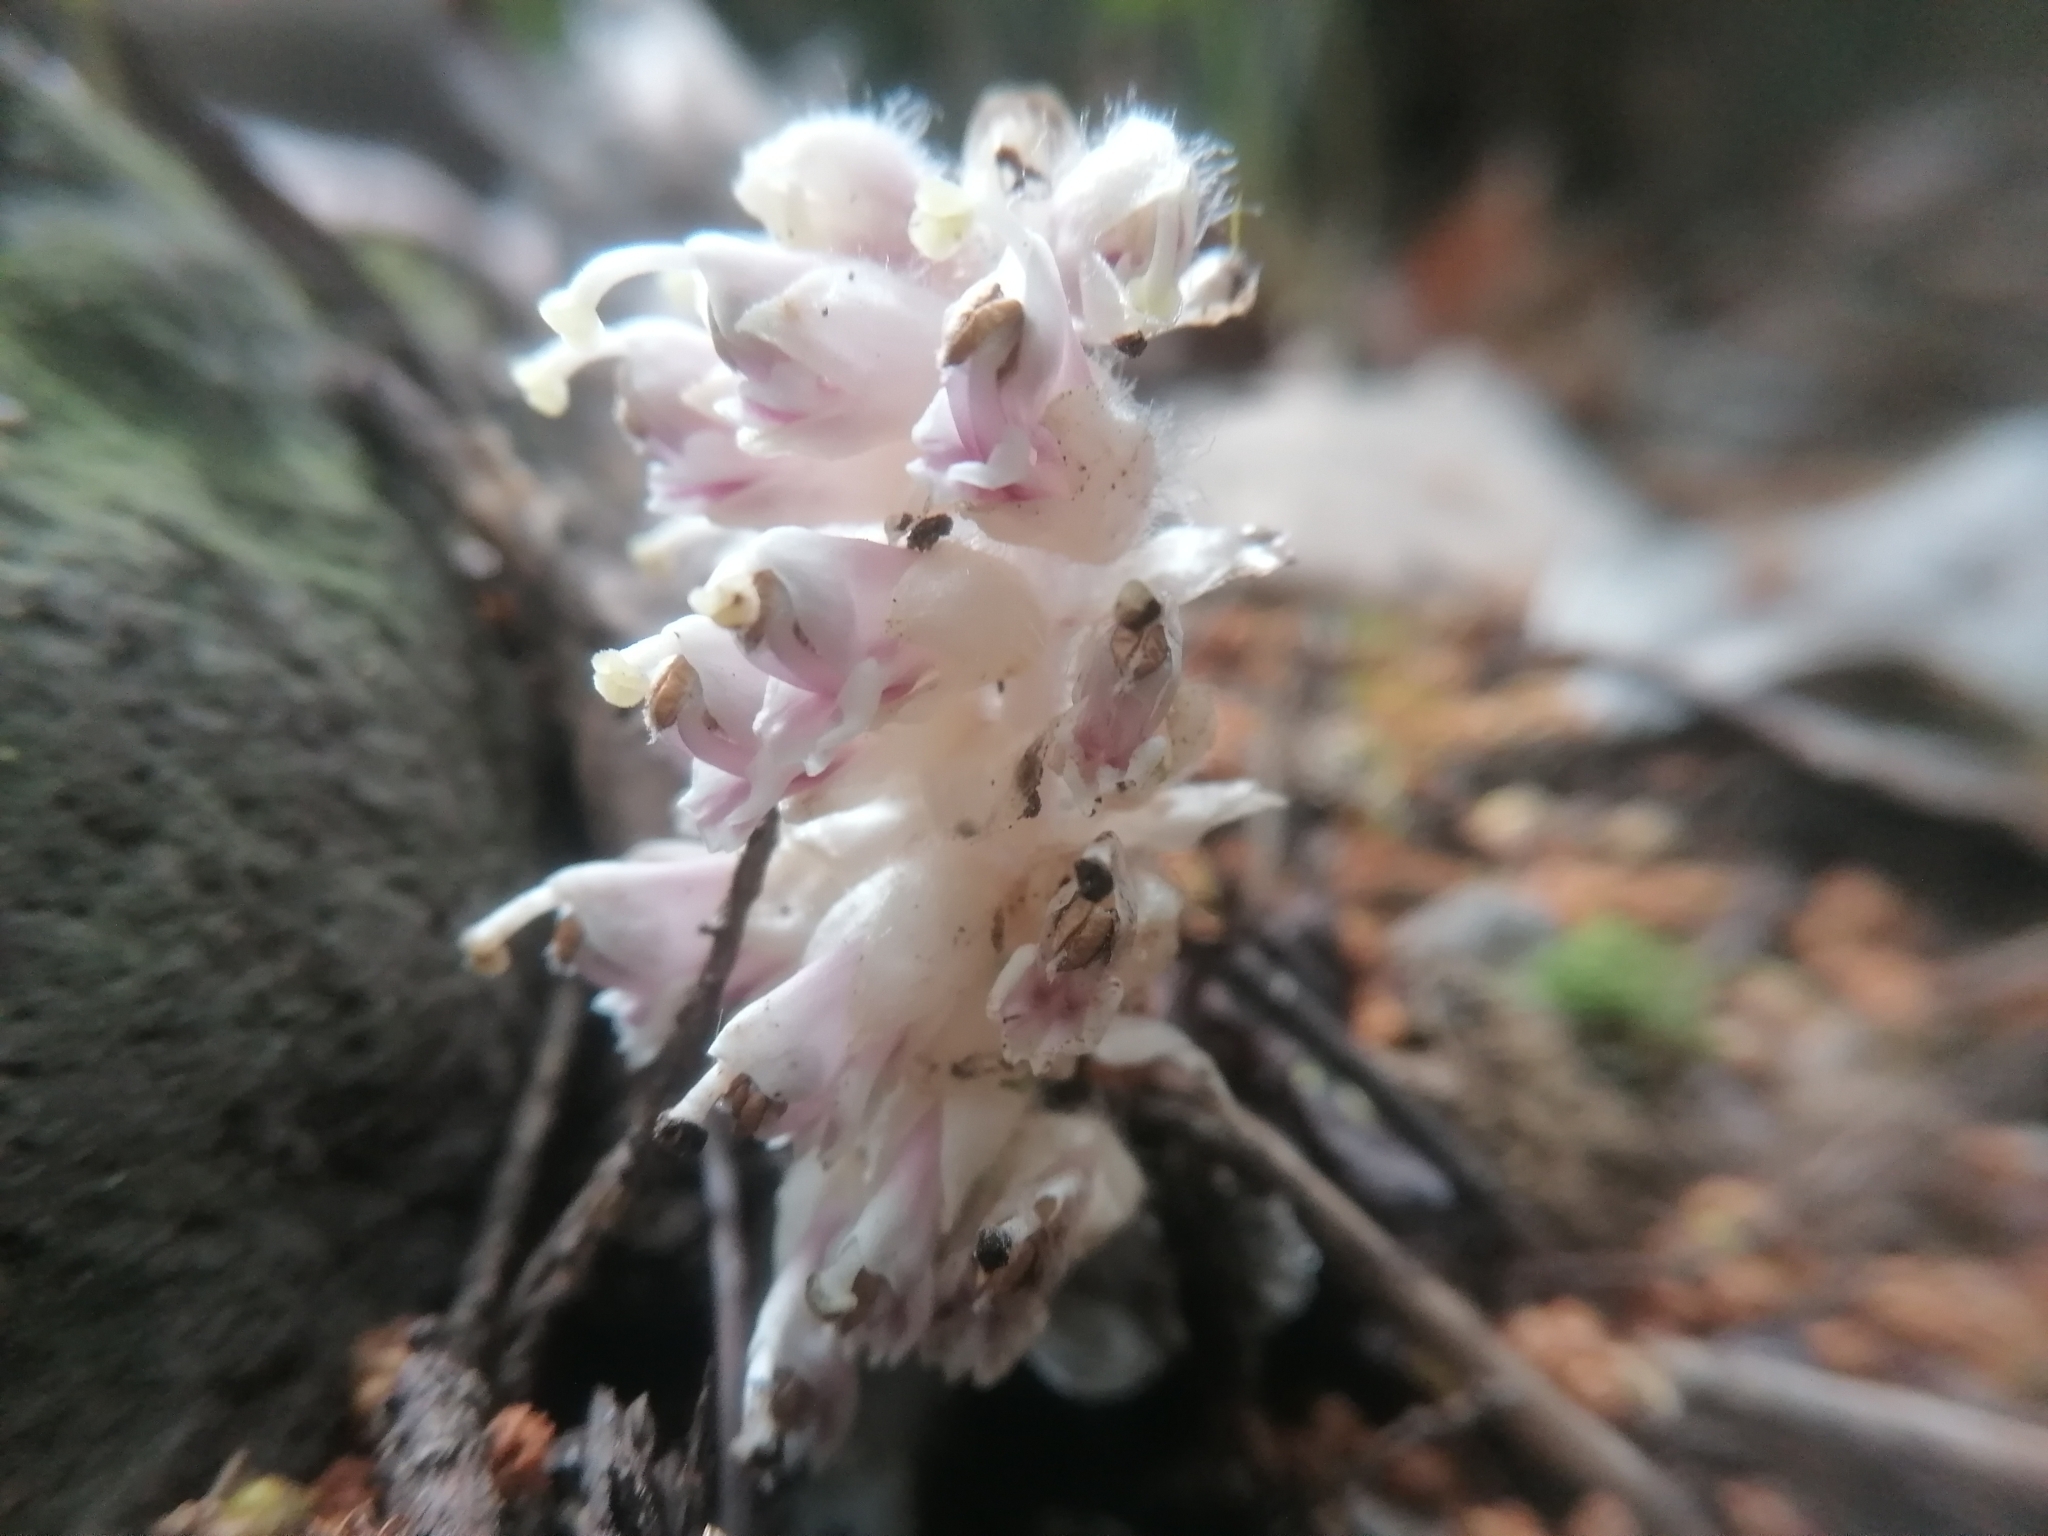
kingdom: Plantae
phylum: Tracheophyta
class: Magnoliopsida
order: Lamiales
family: Orobanchaceae
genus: Lathraea
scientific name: Lathraea squamaria
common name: Toothwort
